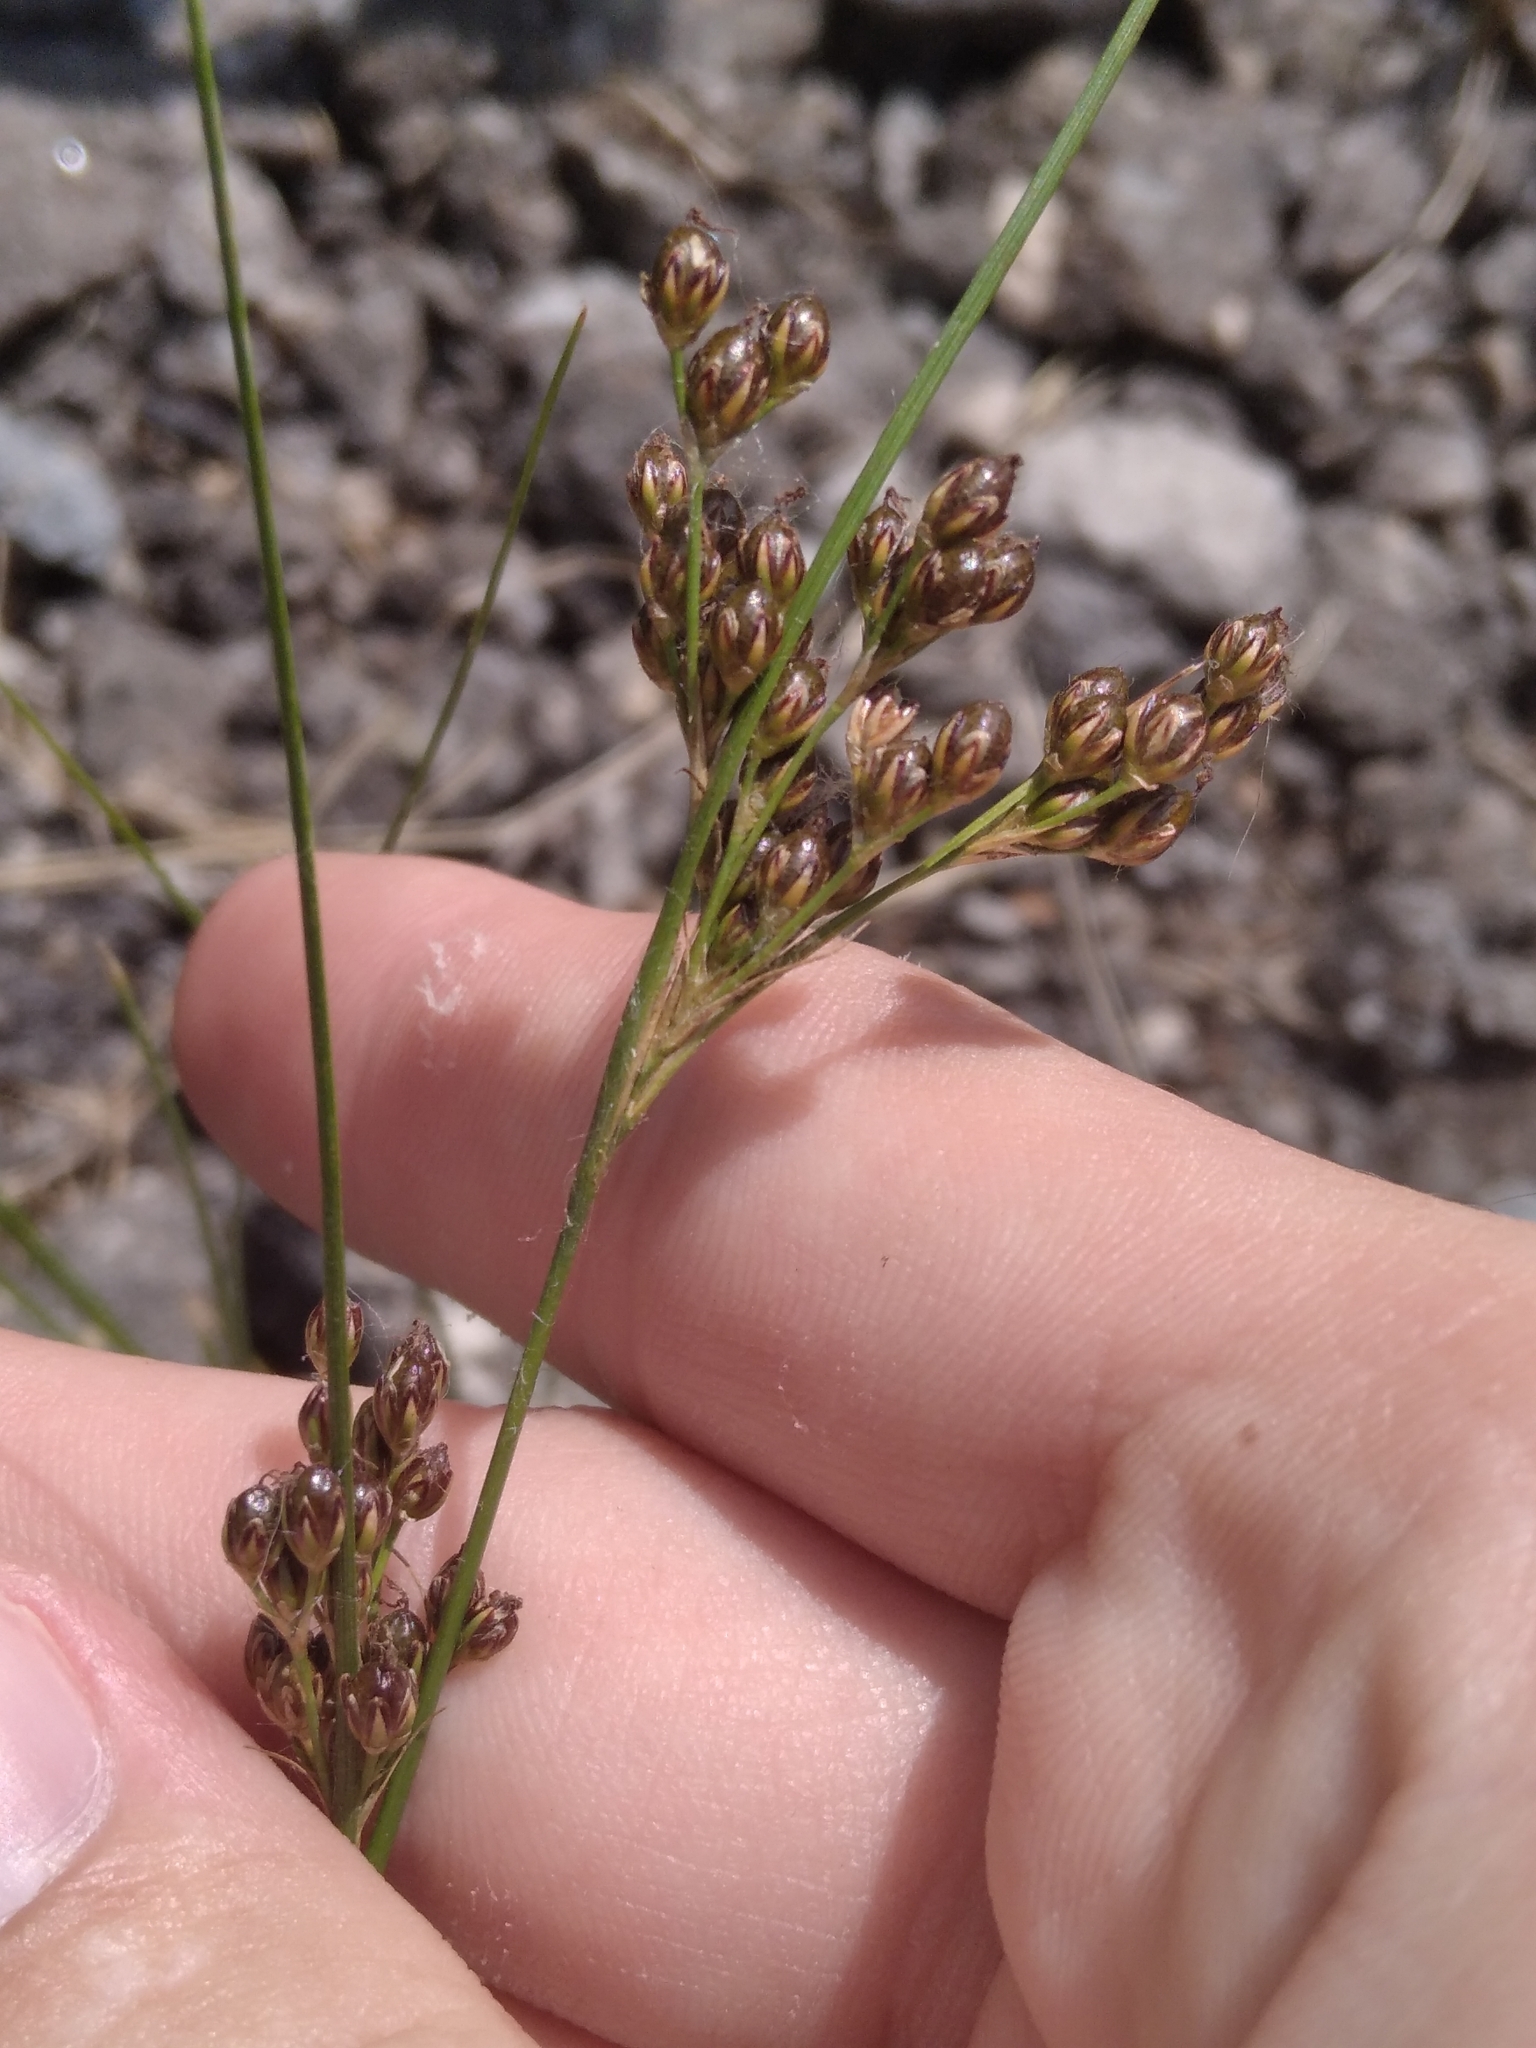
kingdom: Plantae
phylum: Tracheophyta
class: Liliopsida
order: Poales
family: Juncaceae
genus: Juncus
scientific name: Juncus compressus
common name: Round-fruited rush
